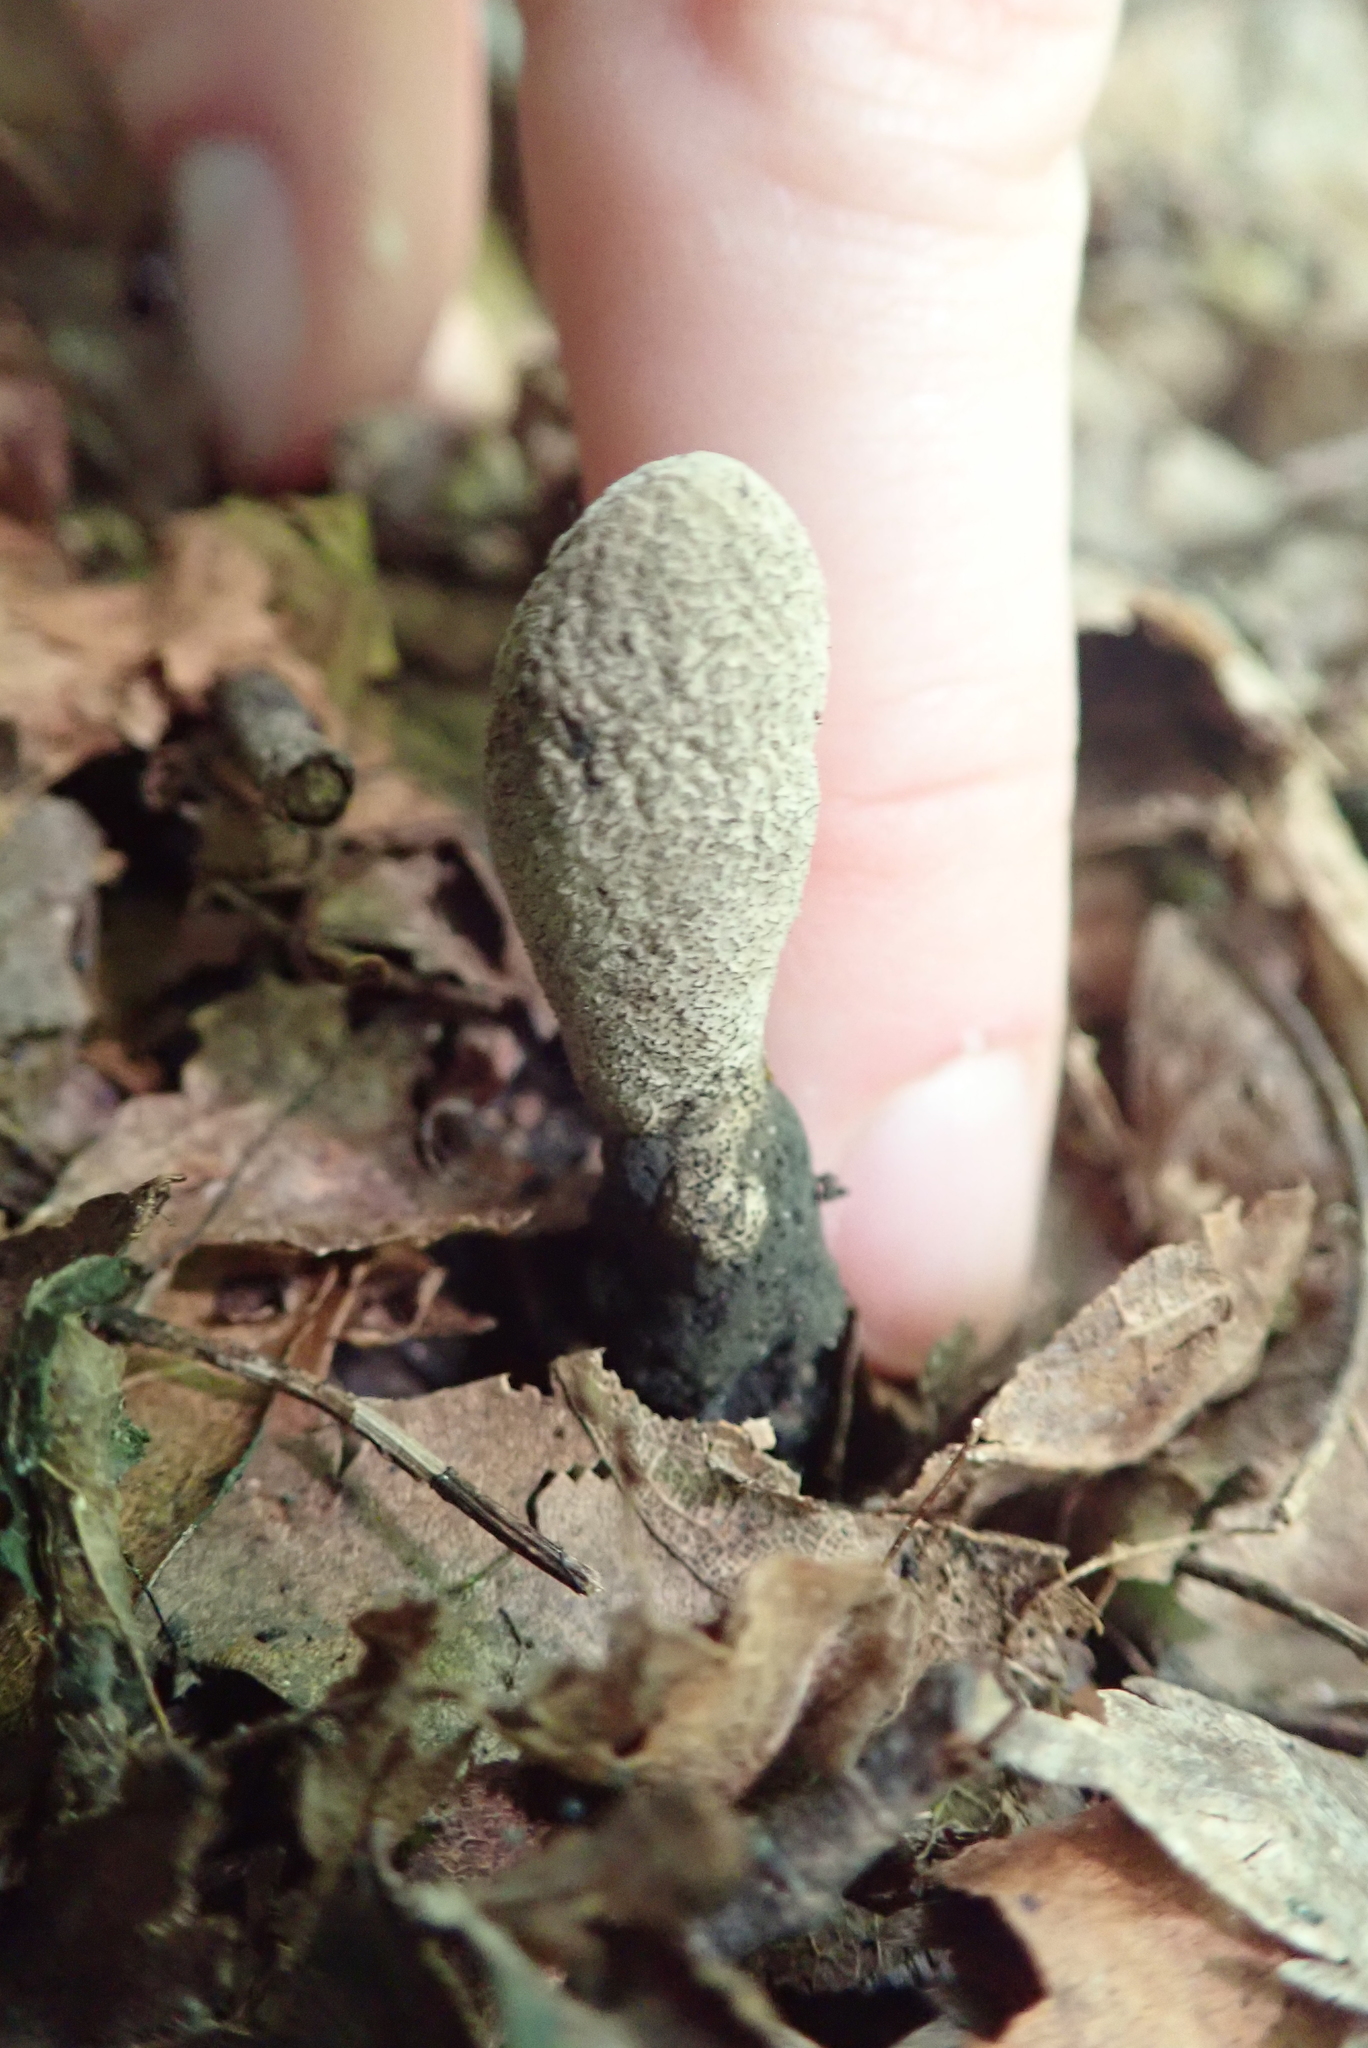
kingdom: Fungi
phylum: Ascomycota
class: Sordariomycetes
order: Xylariales
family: Xylariaceae
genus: Xylaria
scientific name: Xylaria polymorpha
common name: Dead man's fingers
